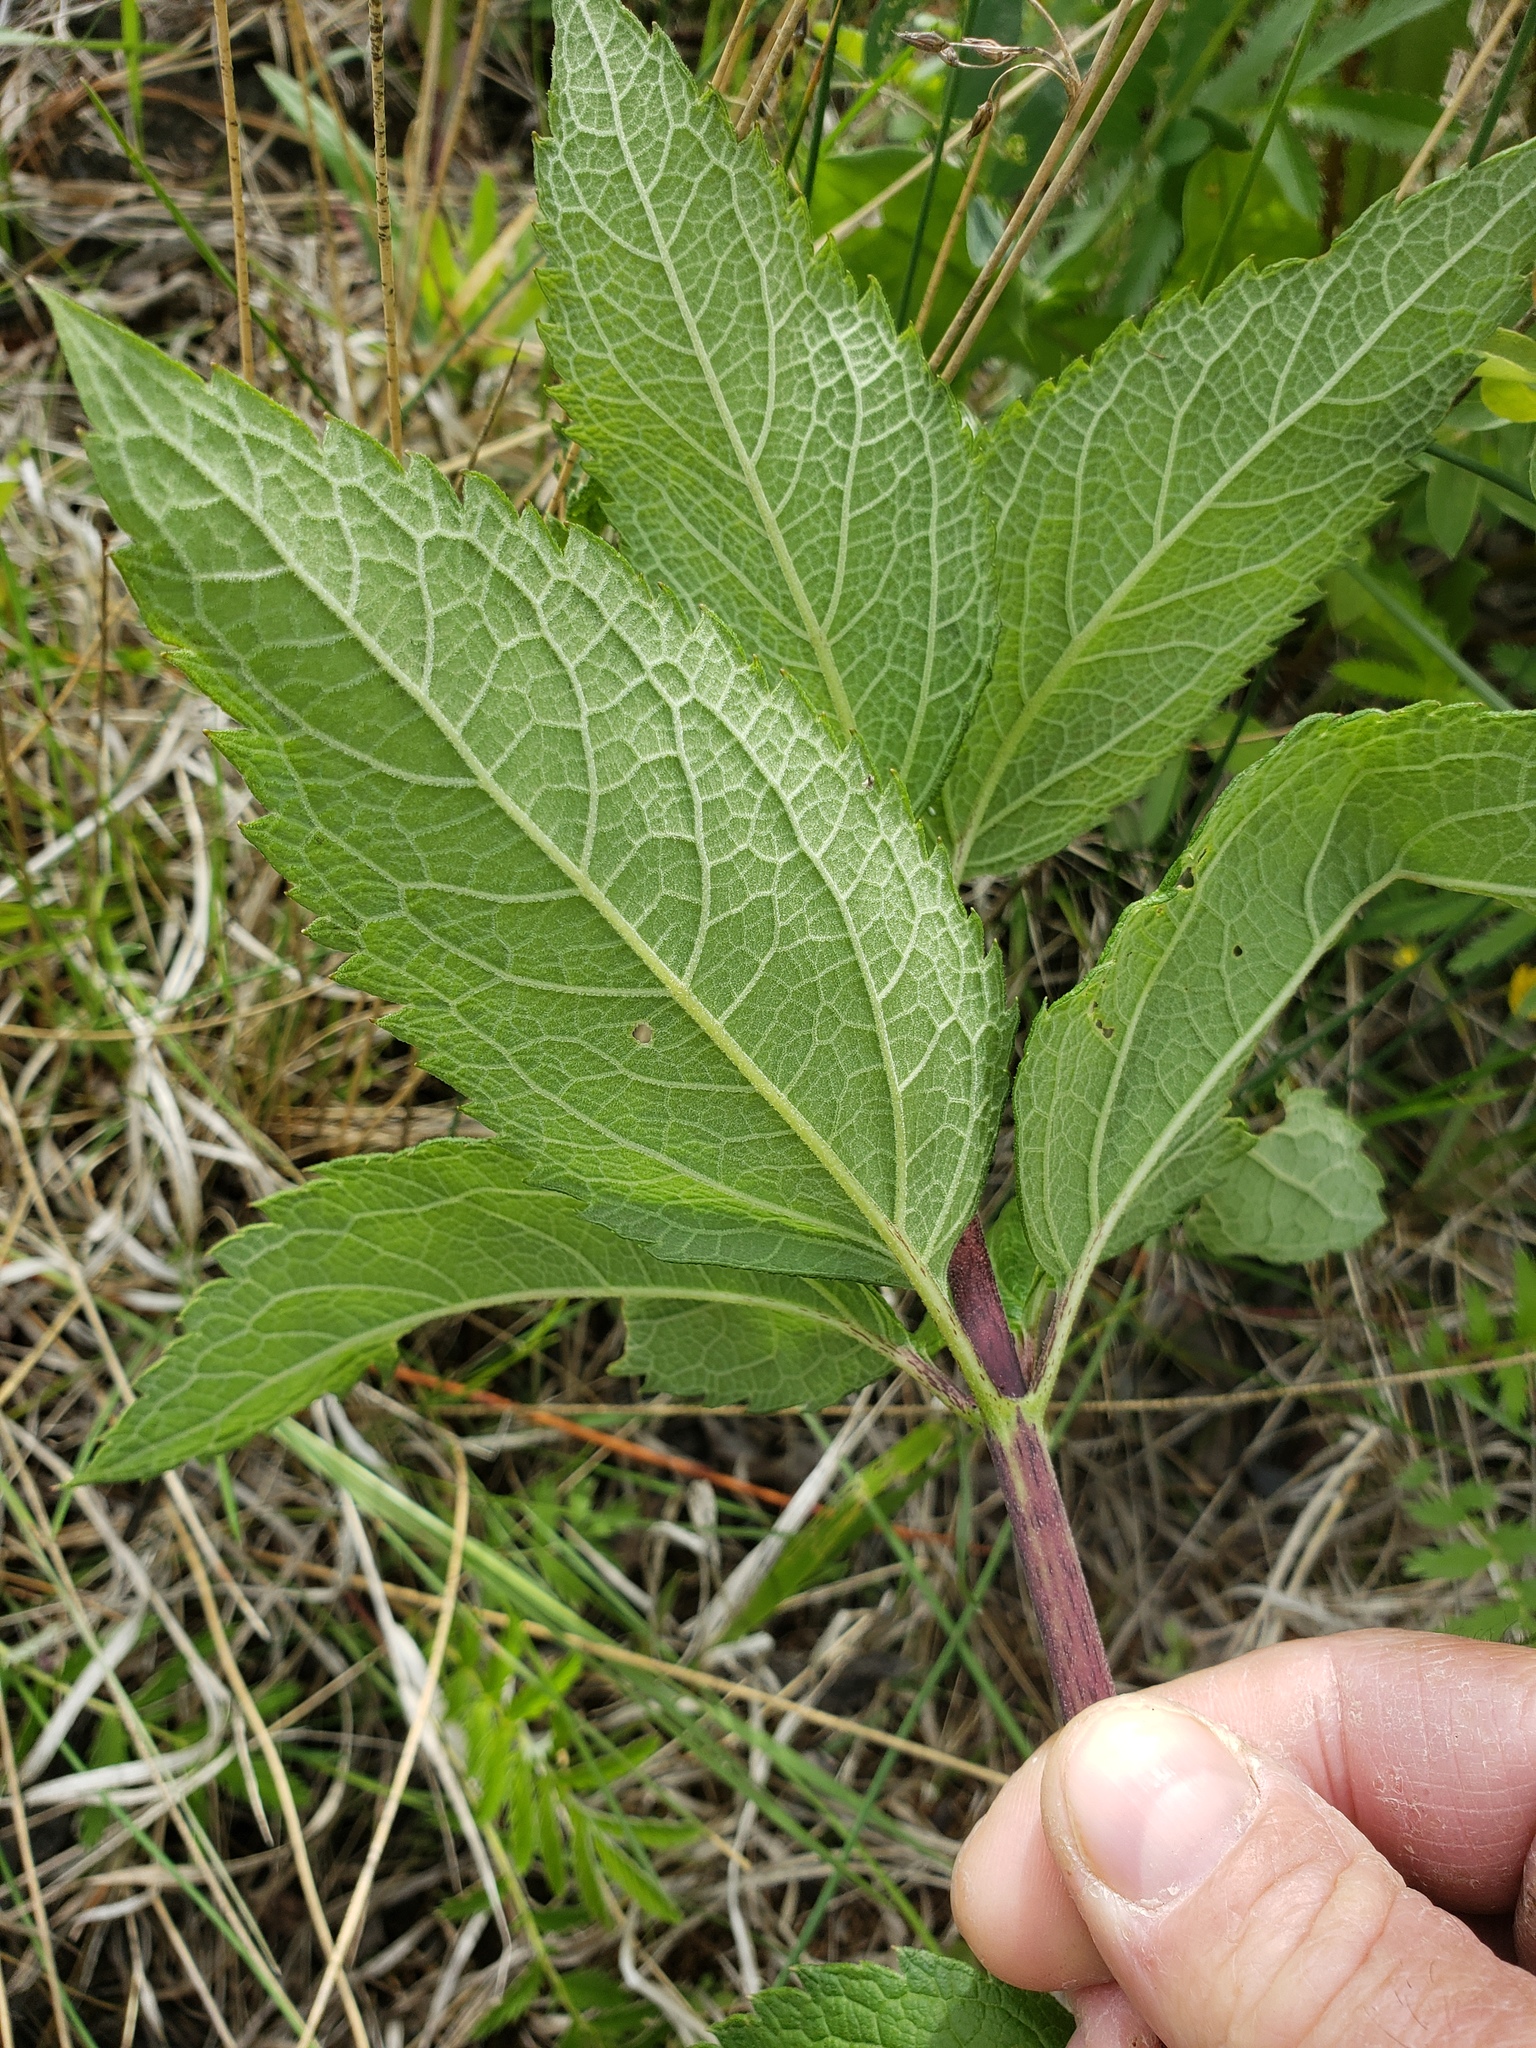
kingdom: Plantae
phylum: Tracheophyta
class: Magnoliopsida
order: Asterales
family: Asteraceae
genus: Eutrochium
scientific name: Eutrochium maculatum
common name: Spotted joe pye weed
